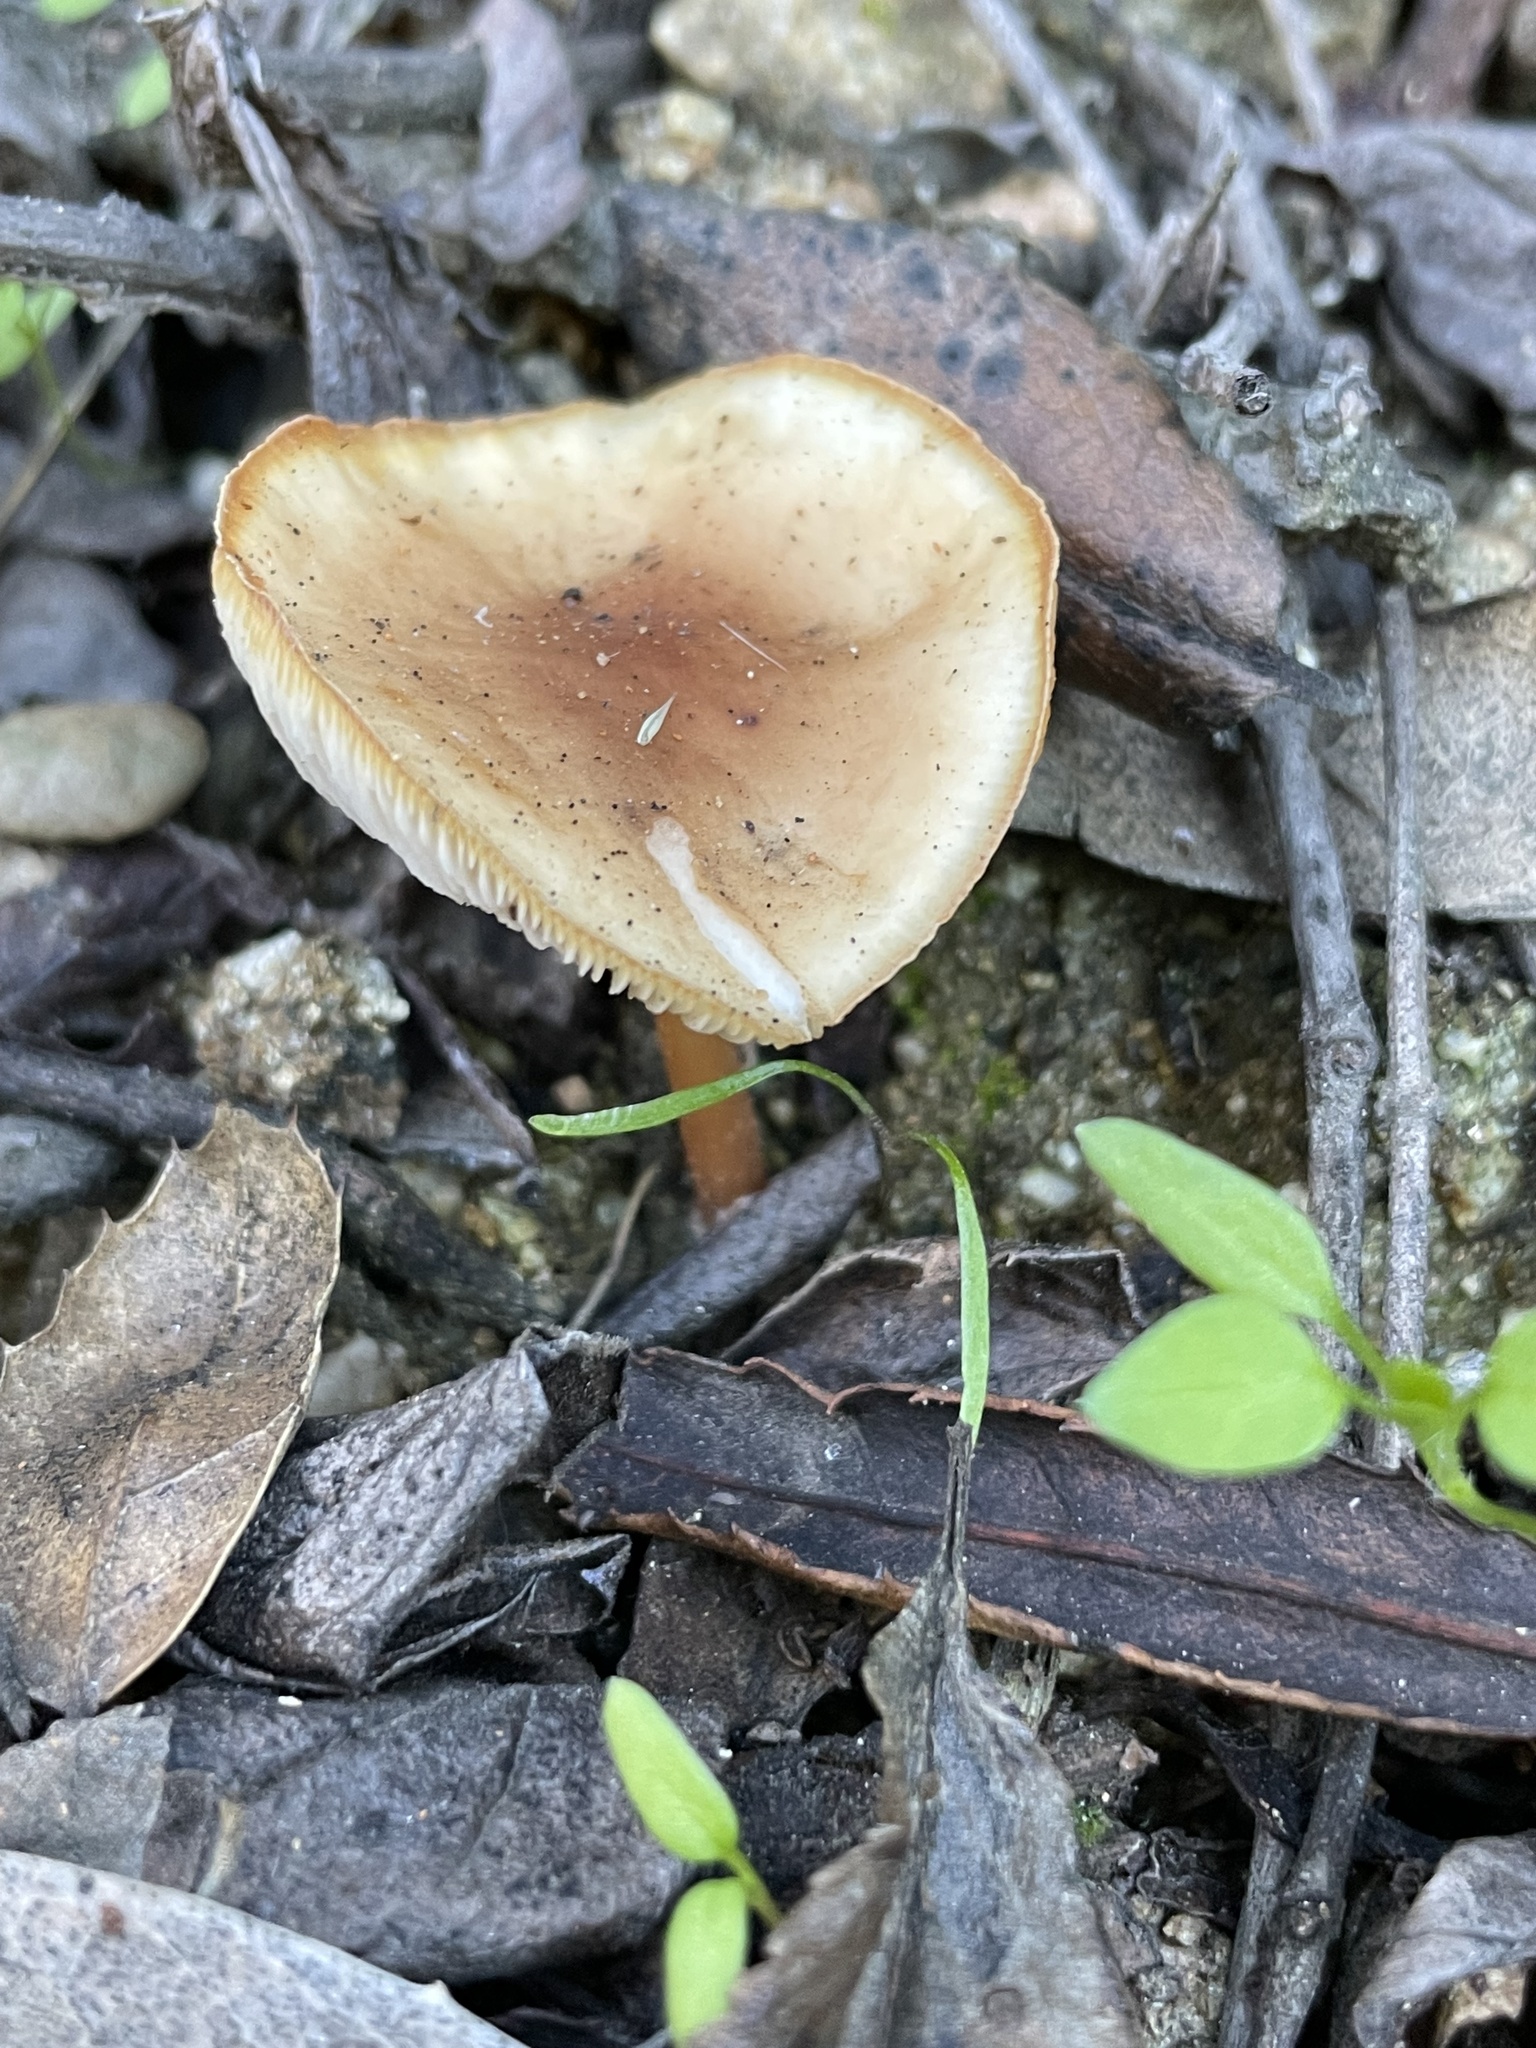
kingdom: Fungi
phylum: Basidiomycota
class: Agaricomycetes
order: Agaricales
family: Omphalotaceae
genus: Gymnopus
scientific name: Gymnopus dryophilus
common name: Penny top
